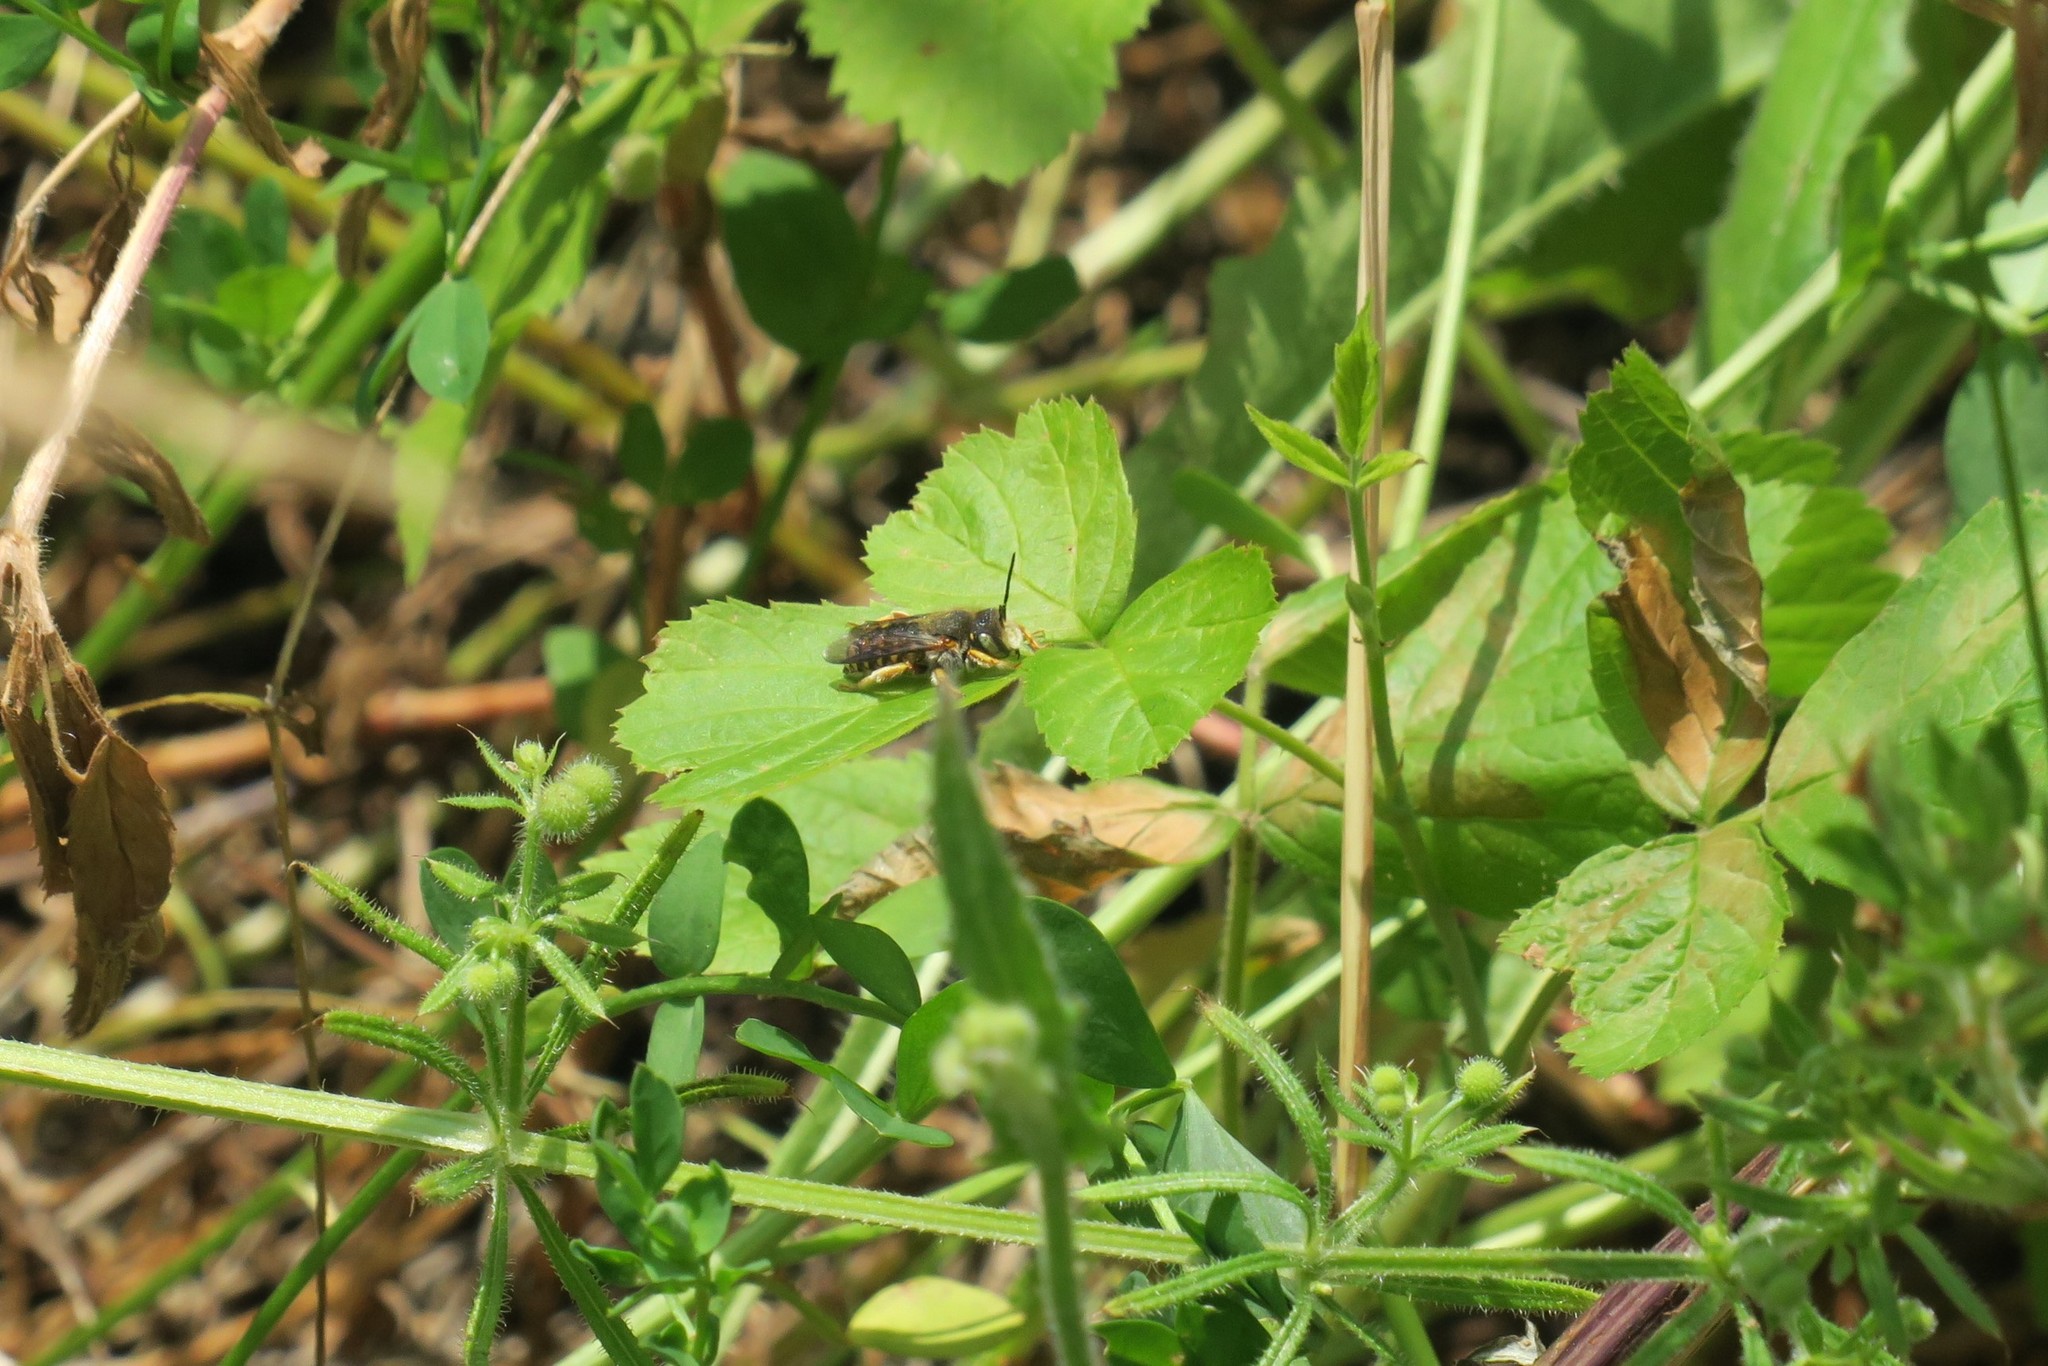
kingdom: Animalia
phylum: Arthropoda
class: Insecta
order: Hymenoptera
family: Megachilidae
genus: Anthidium
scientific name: Anthidium oblongatum
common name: Oblong wool carder bee
